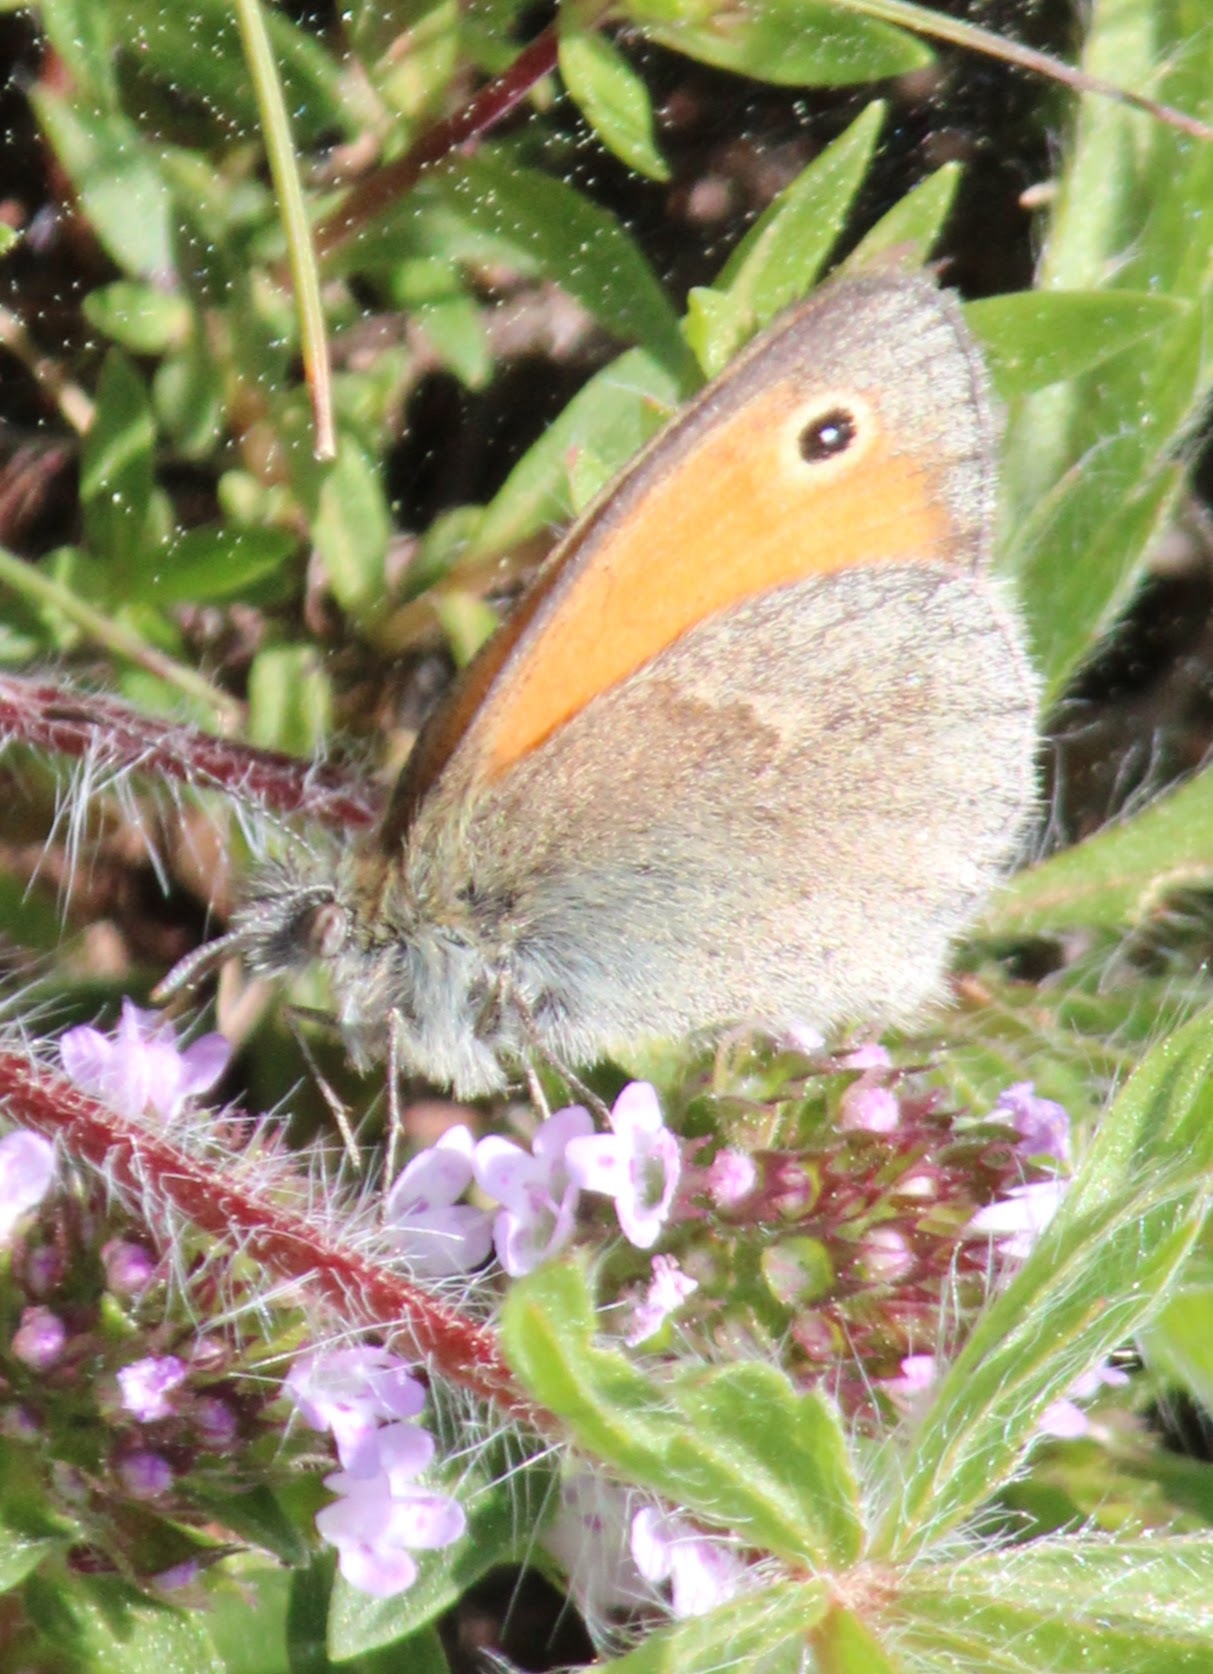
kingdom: Animalia
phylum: Arthropoda
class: Insecta
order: Lepidoptera
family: Nymphalidae
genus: Coenonympha
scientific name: Coenonympha pamphilus
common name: Small heath
